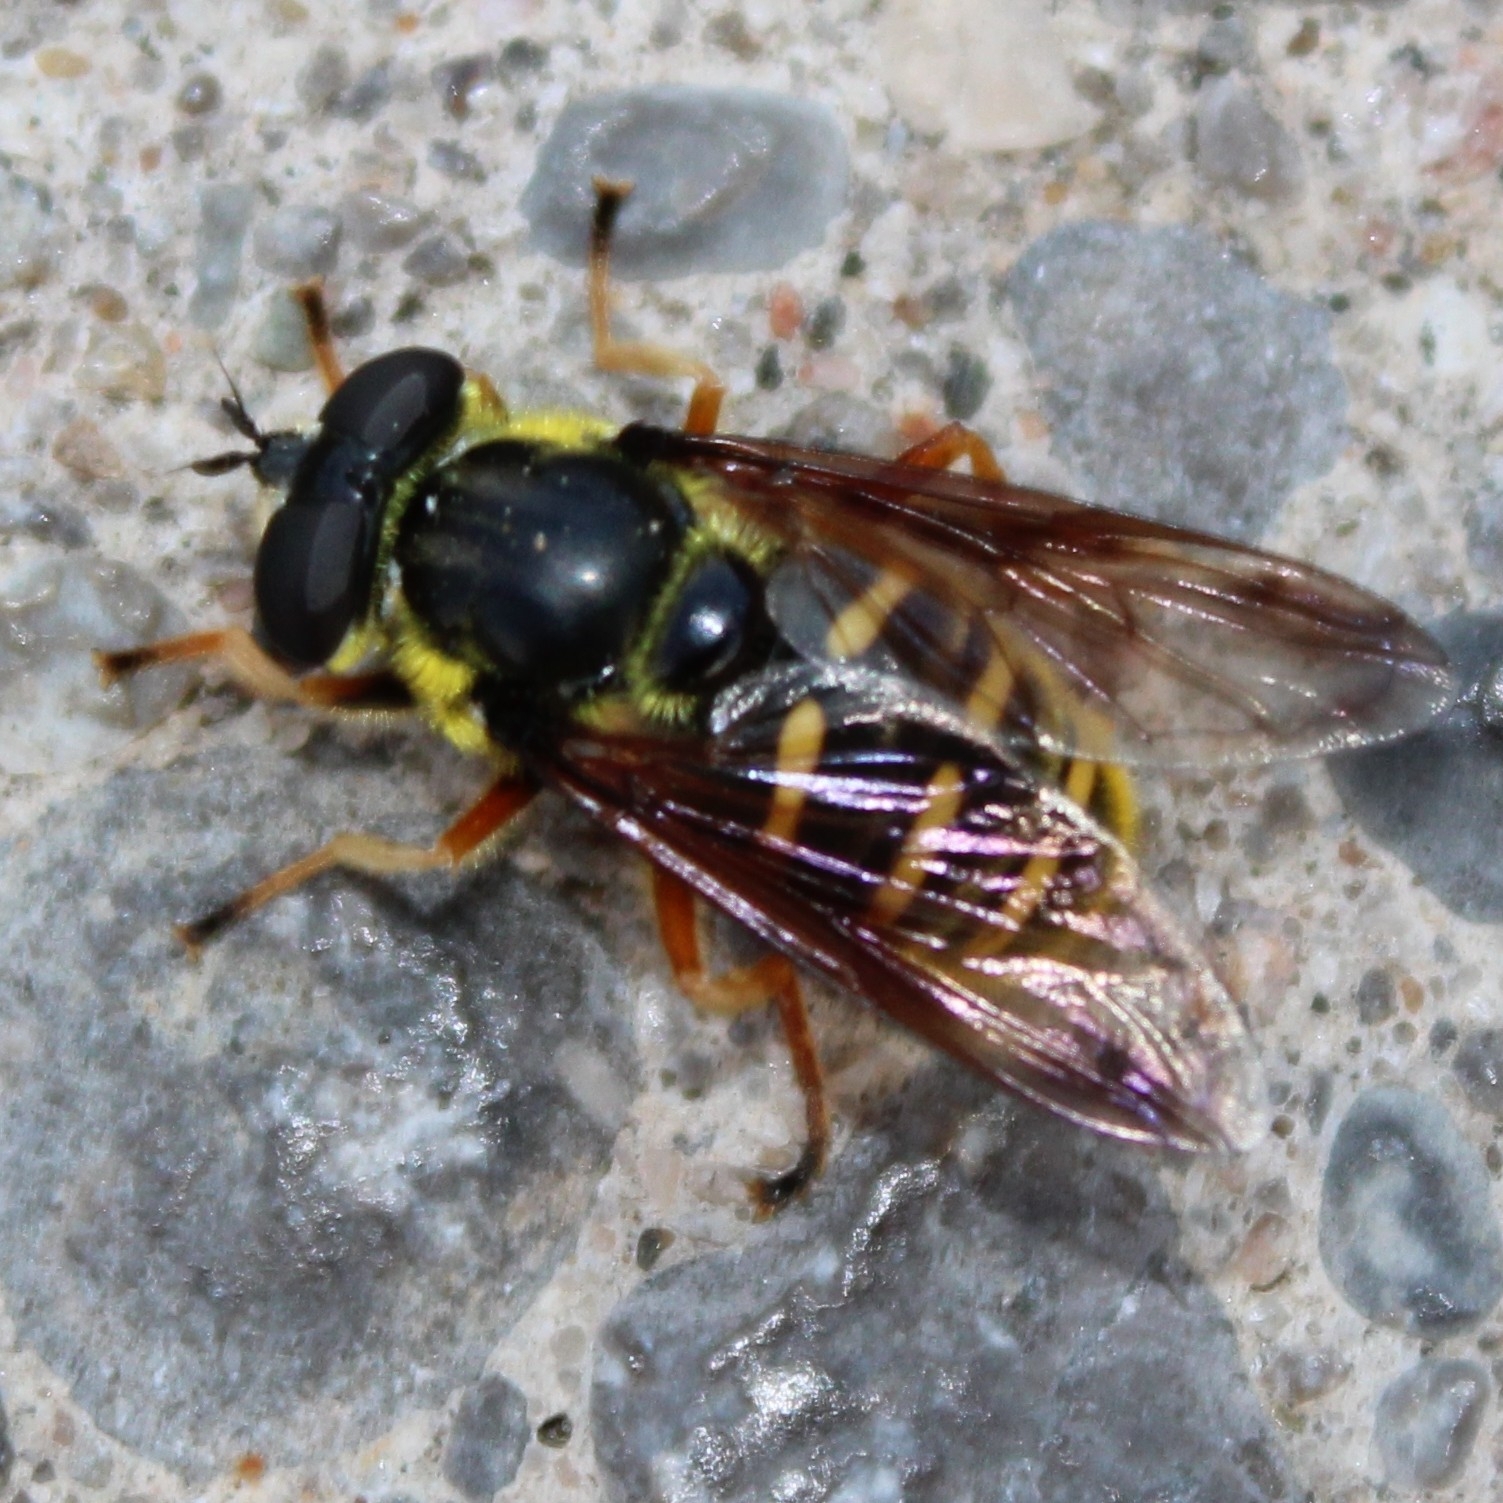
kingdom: Animalia
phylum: Arthropoda
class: Insecta
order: Diptera
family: Syrphidae
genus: Sericomyia
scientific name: Sericomyia chrysotoxoides
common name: Oblique-banded pond fly
